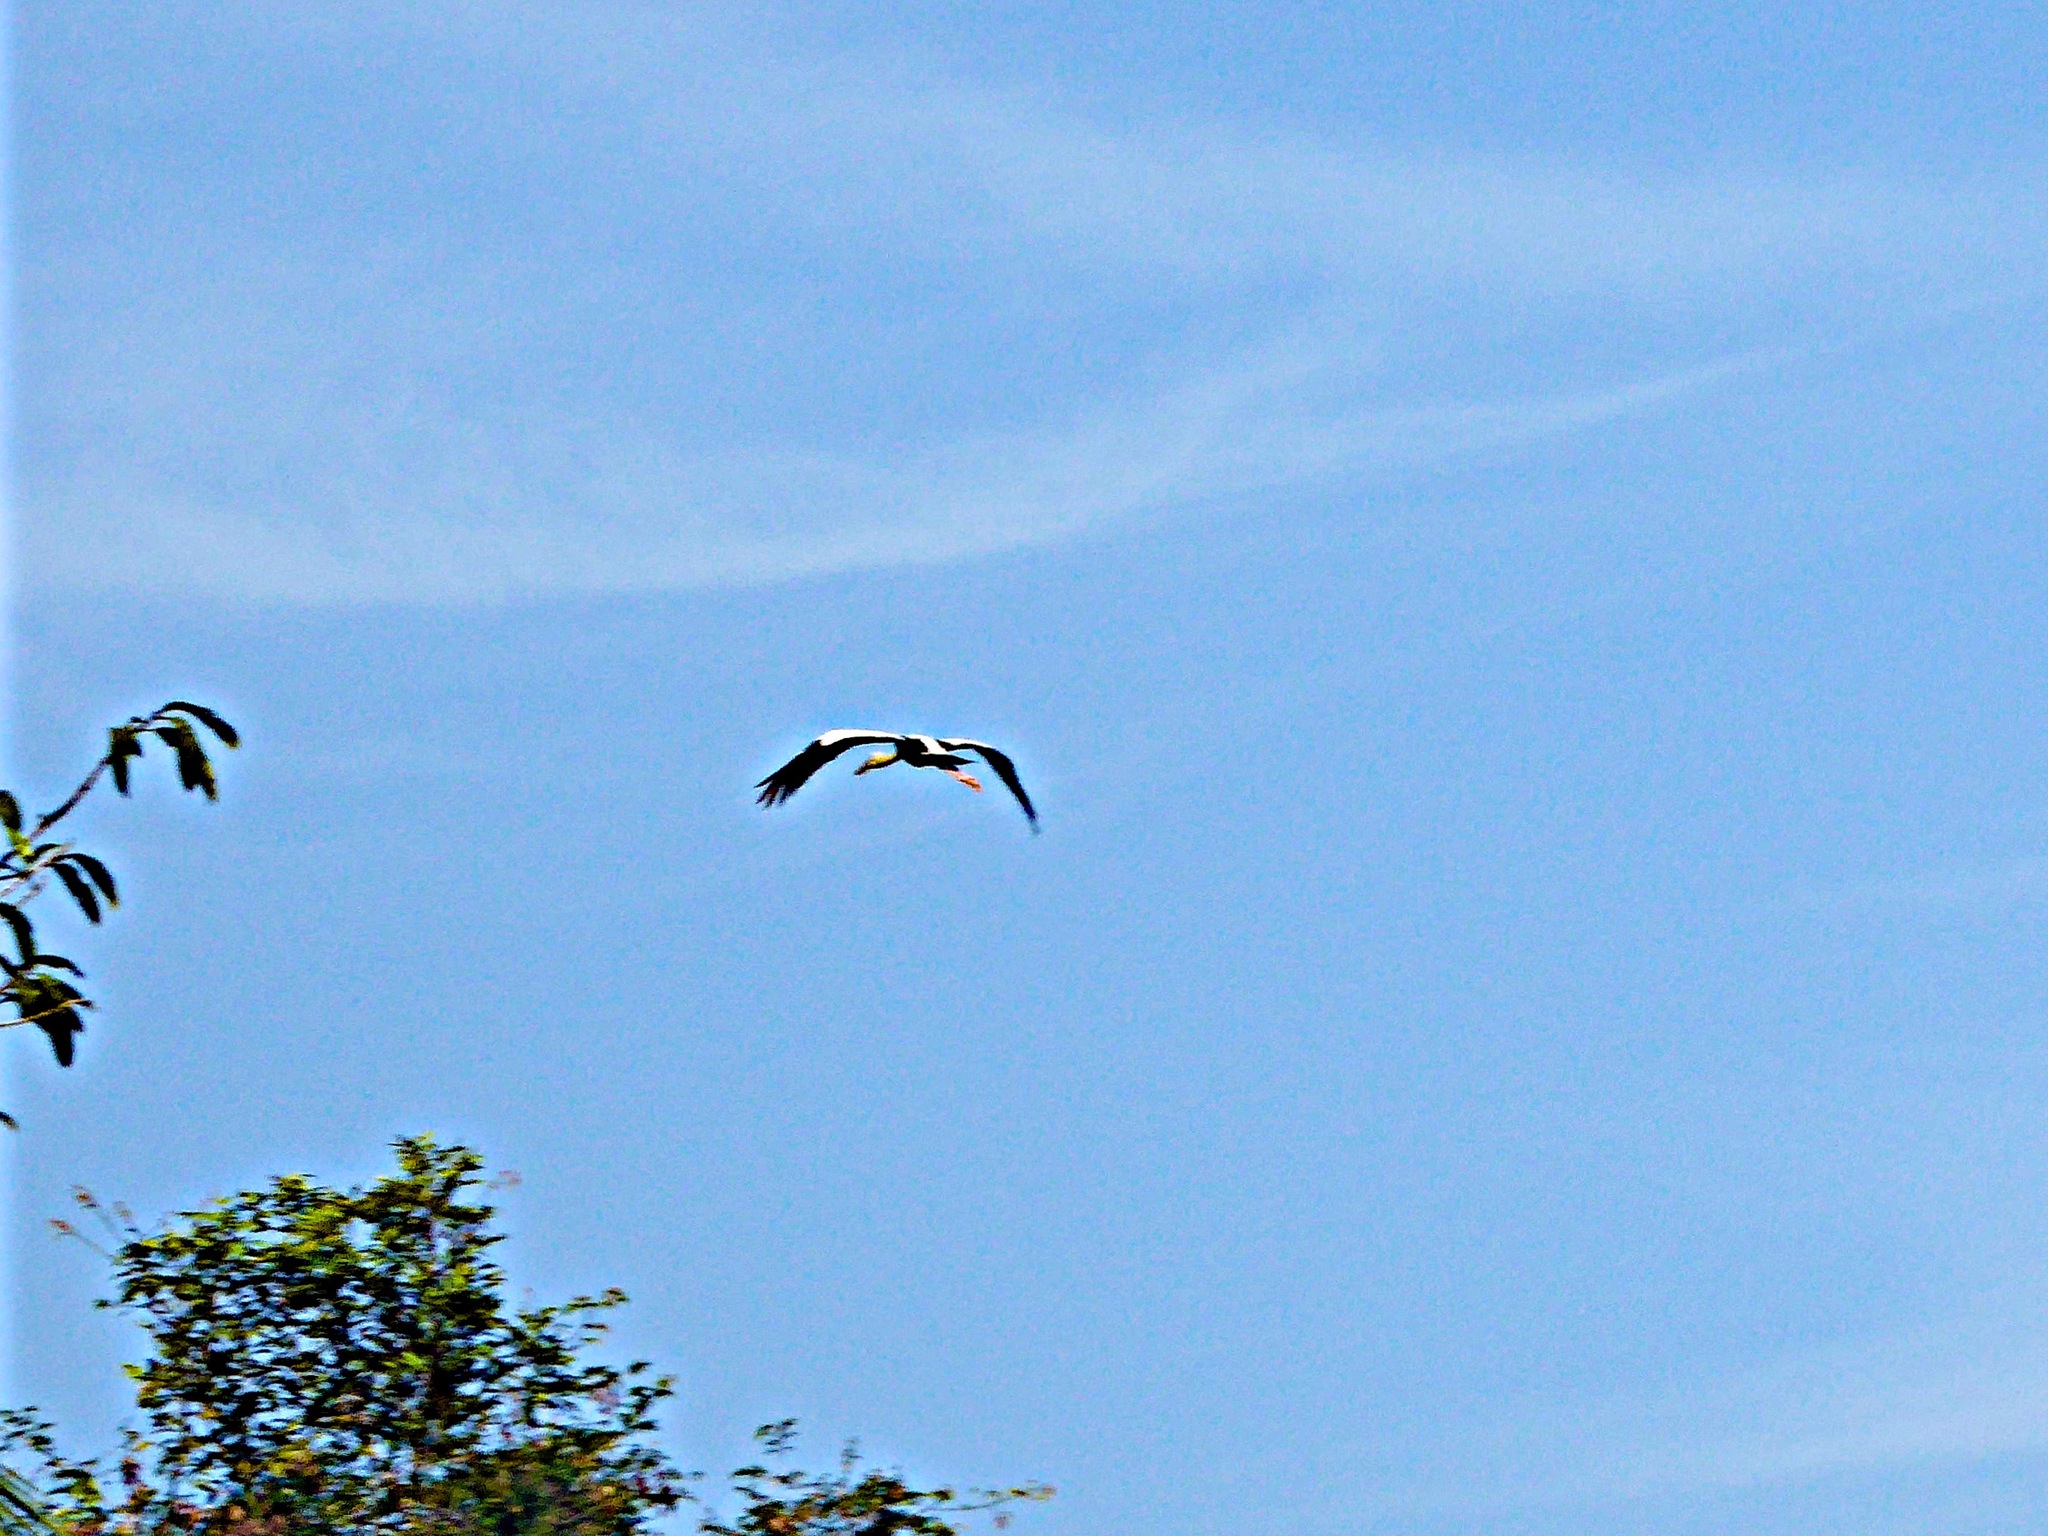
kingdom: Animalia
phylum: Chordata
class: Aves
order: Ciconiiformes
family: Ciconiidae
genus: Anastomus
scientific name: Anastomus oscitans
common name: Asian openbill
